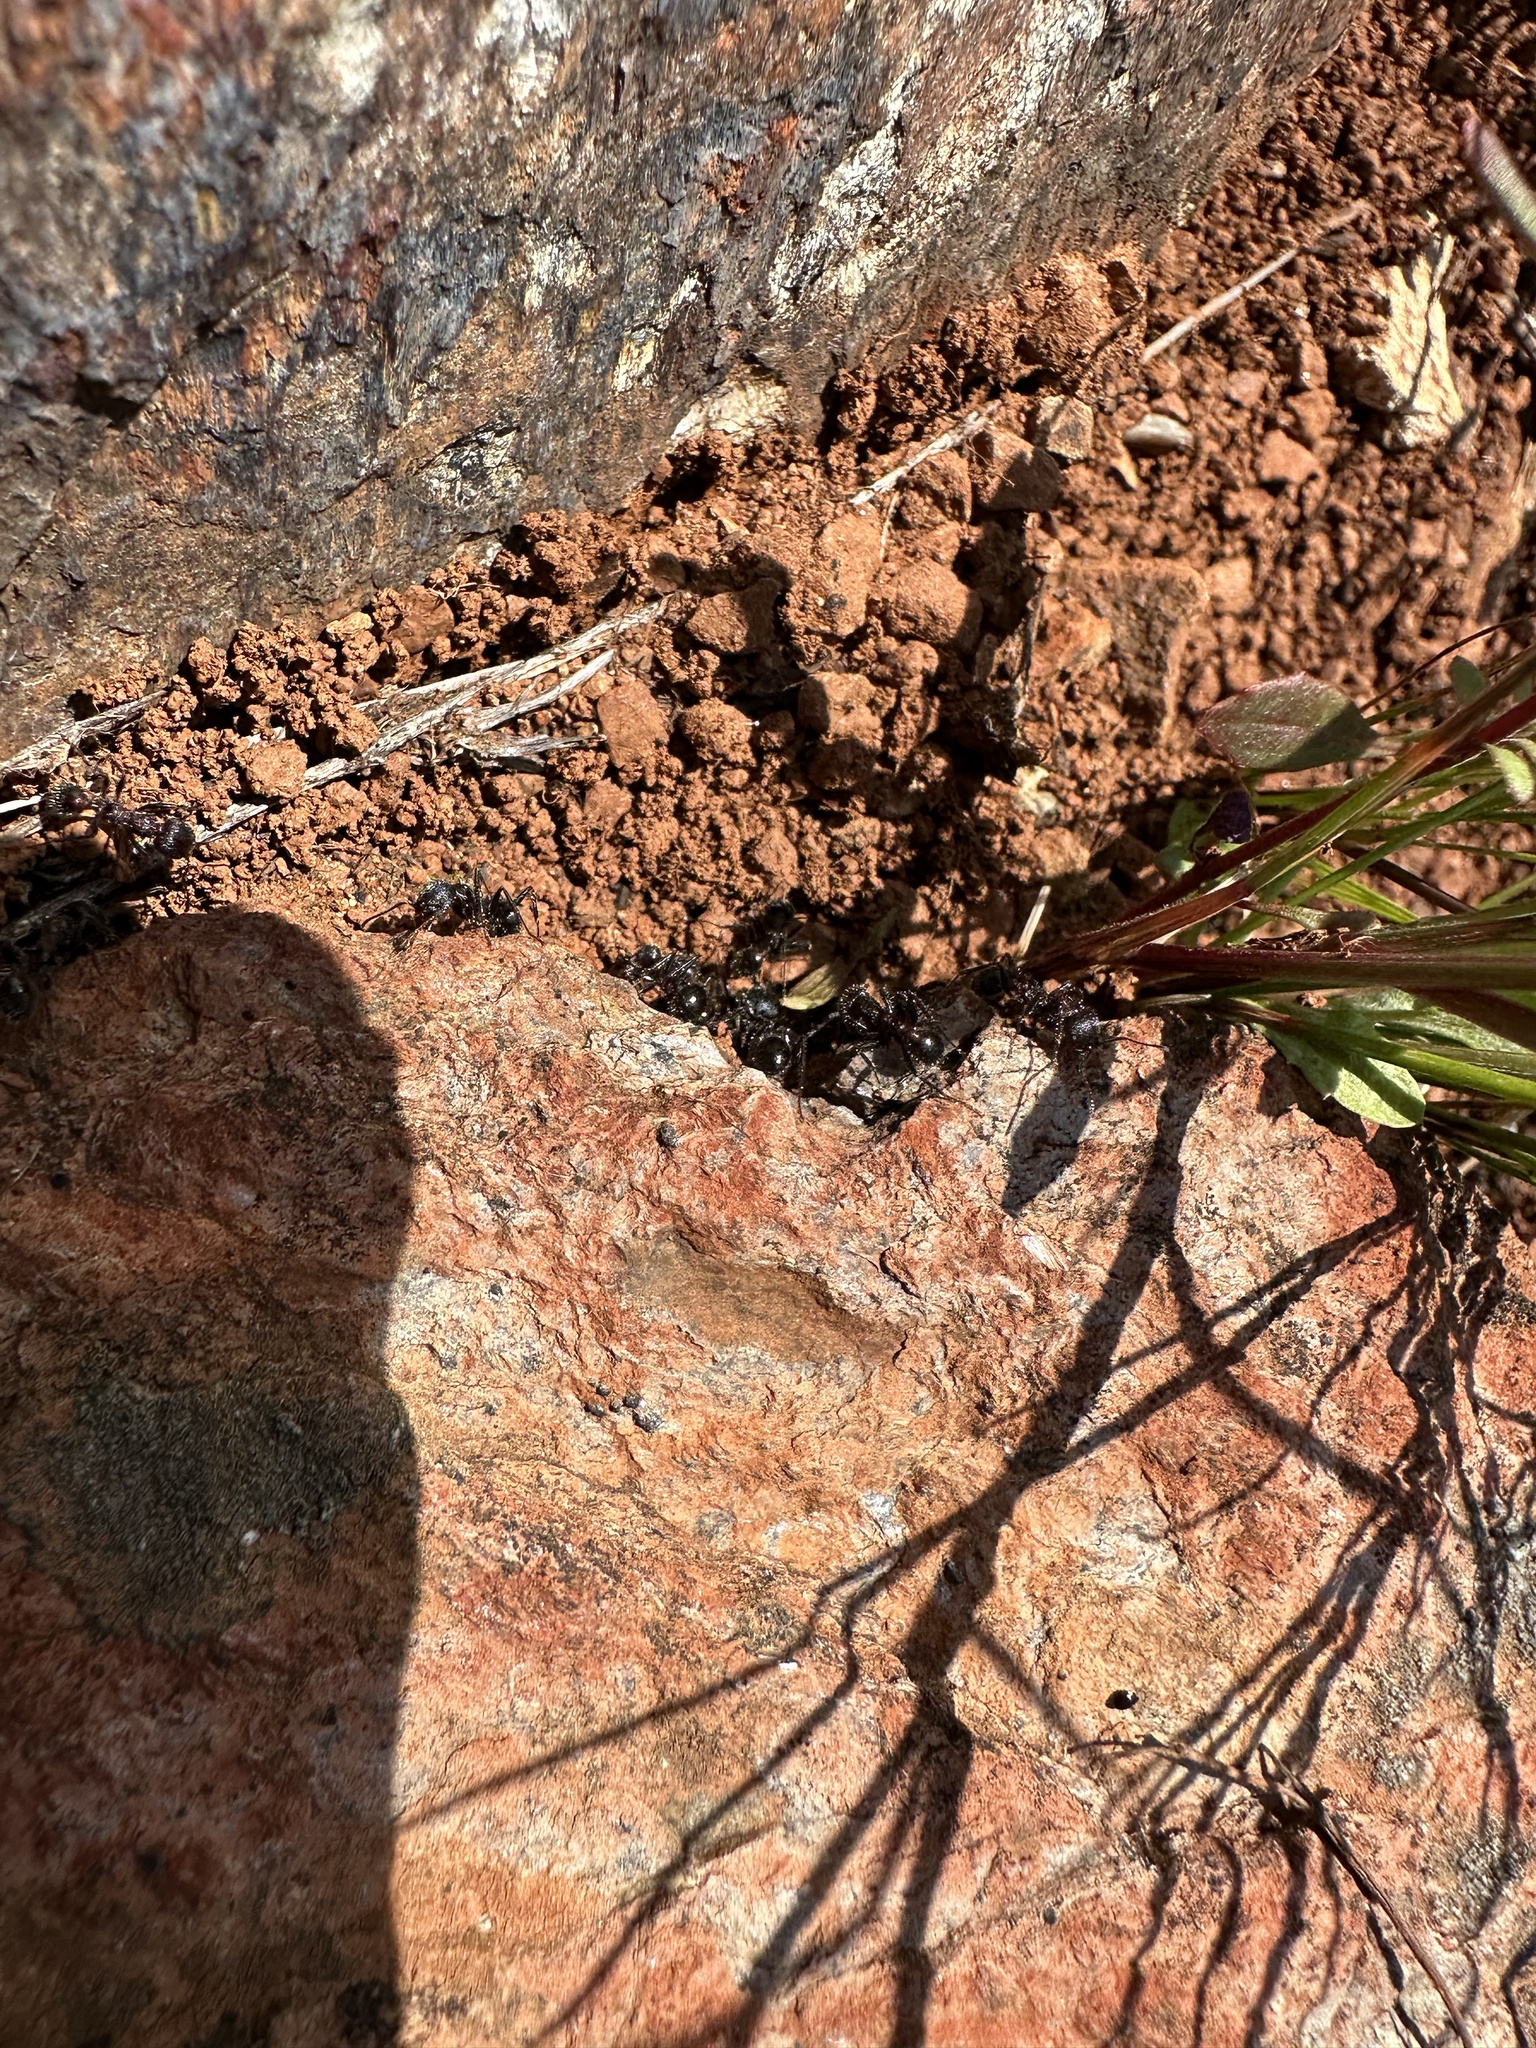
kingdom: Animalia
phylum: Arthropoda
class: Insecta
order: Hymenoptera
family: Formicidae
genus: Veromessor
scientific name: Veromessor andrei
